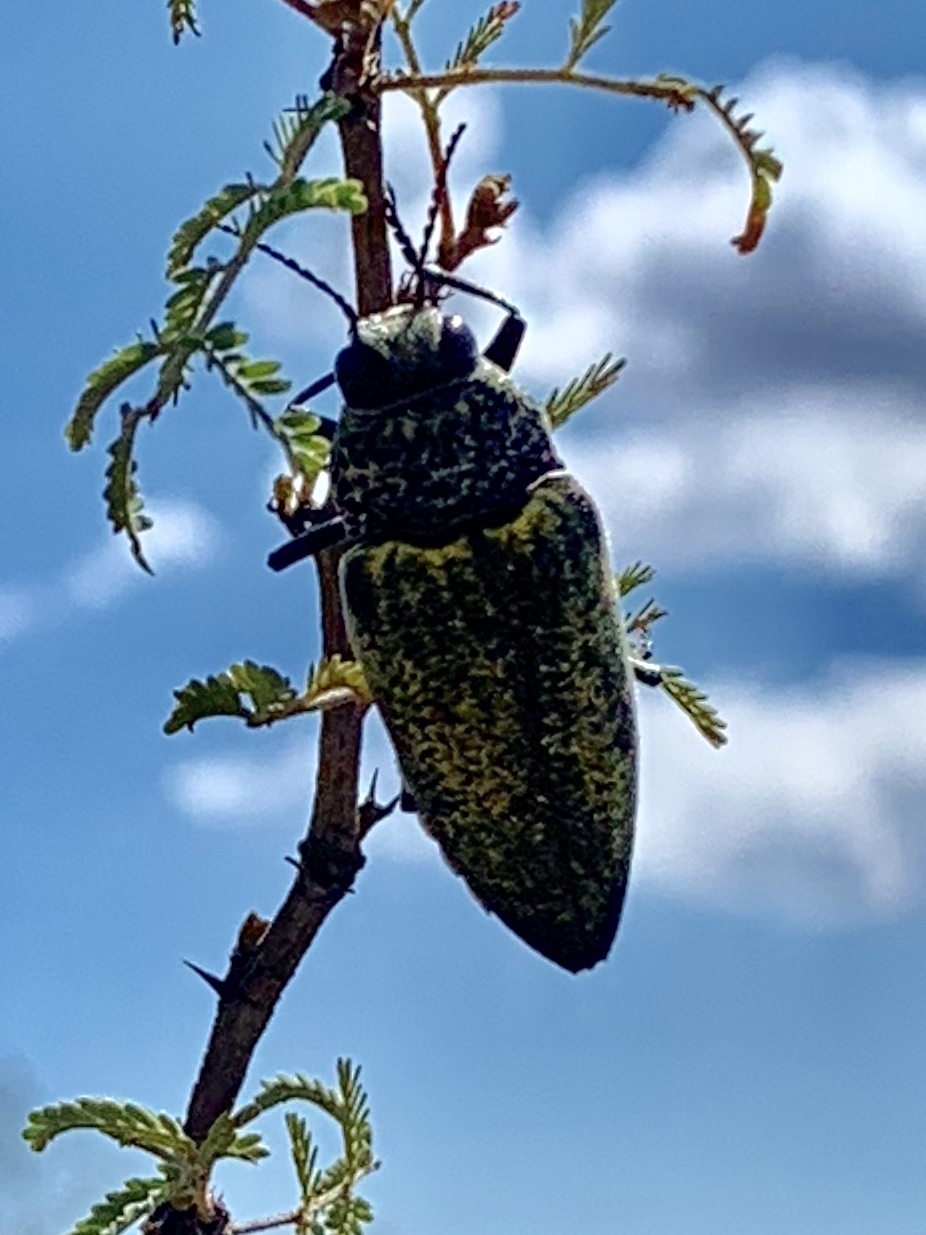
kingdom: Animalia
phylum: Arthropoda
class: Insecta
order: Coleoptera
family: Buprestidae
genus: Gyascutus
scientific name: Gyascutus caelatus
